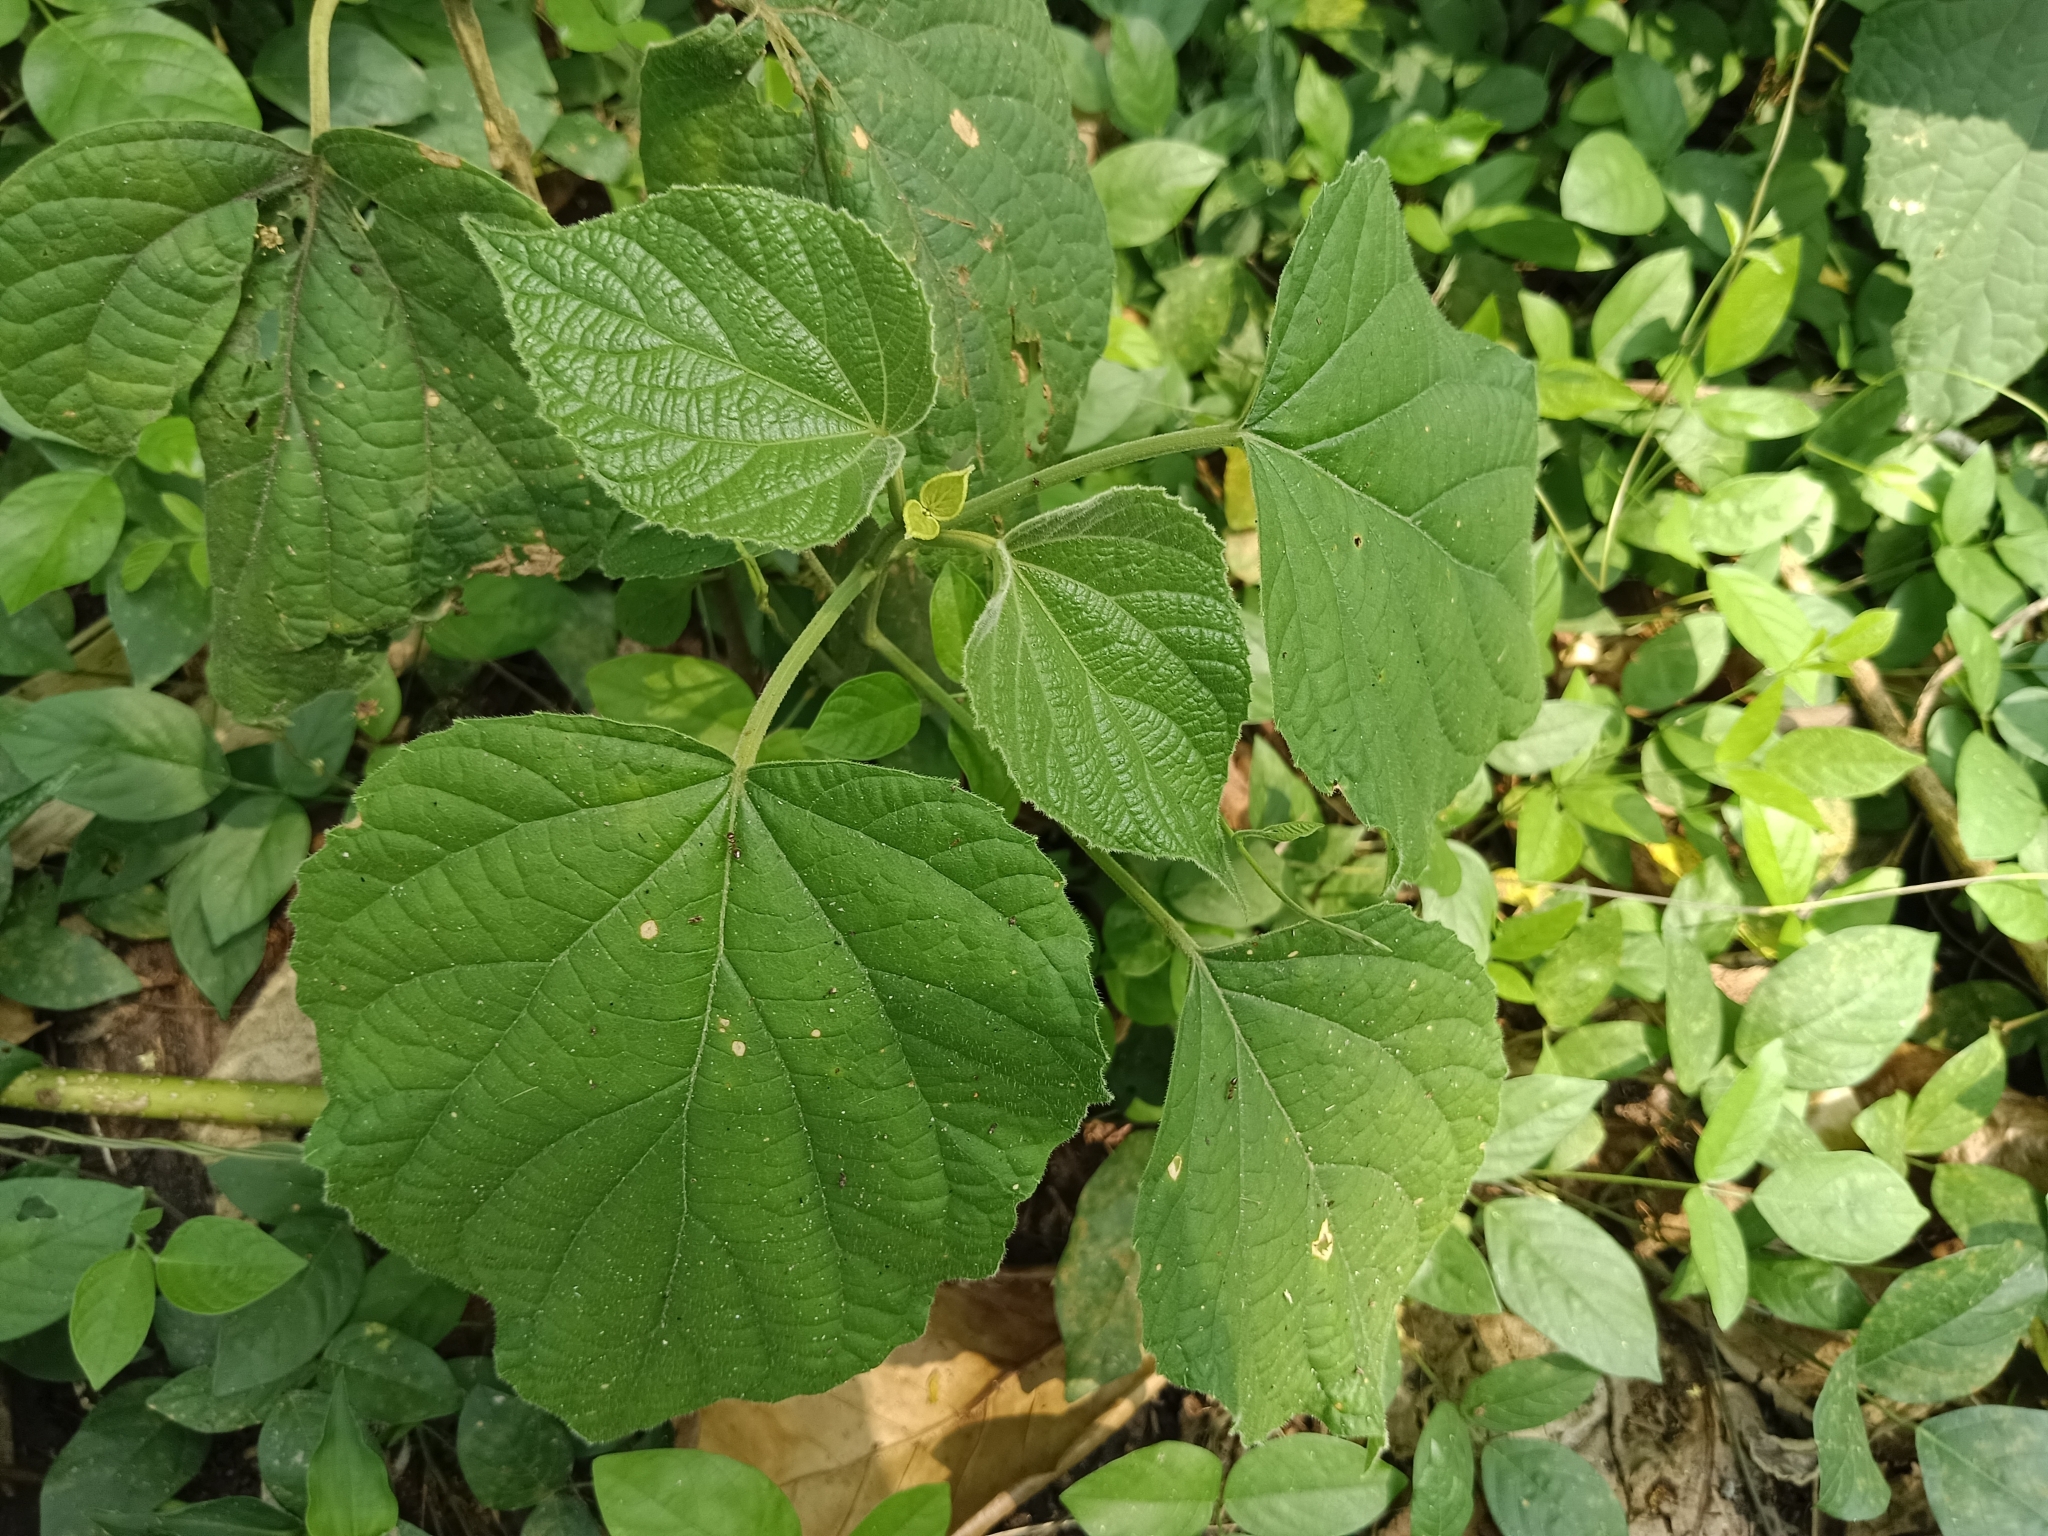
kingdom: Plantae
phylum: Tracheophyta
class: Magnoliopsida
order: Lamiales
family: Lamiaceae
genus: Clerodendrum
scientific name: Clerodendrum infortunatum
